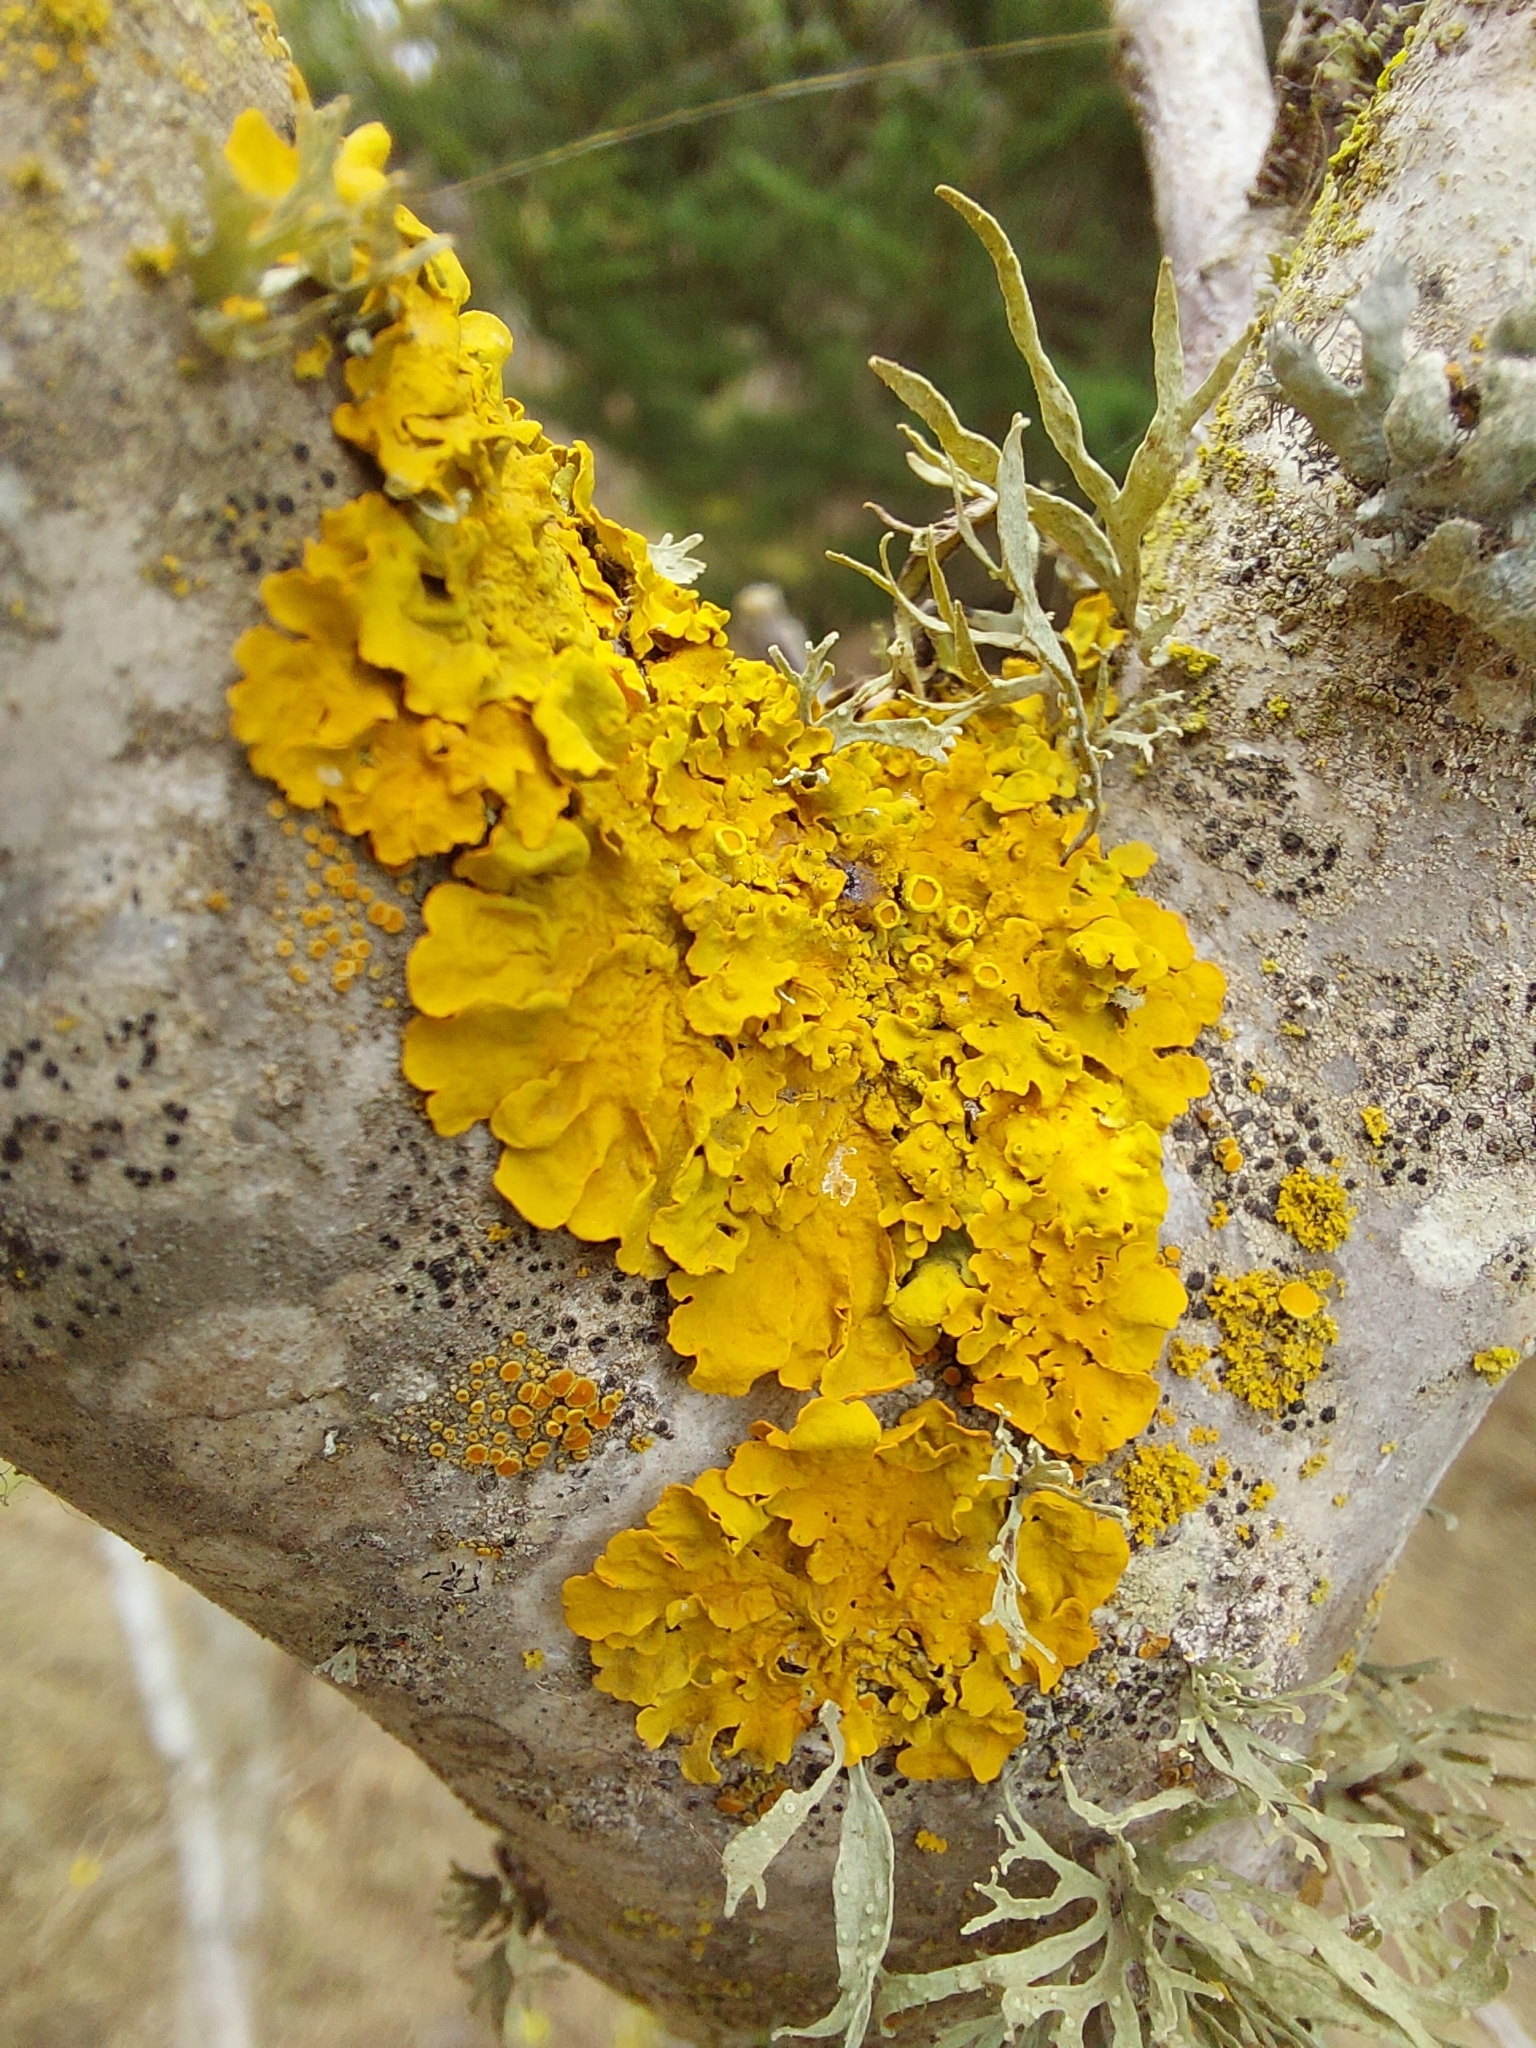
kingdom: Fungi
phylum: Ascomycota
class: Lecanoromycetes
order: Teloschistales
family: Teloschistaceae
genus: Xanthoria
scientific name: Xanthoria parietina
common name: Common orange lichen
